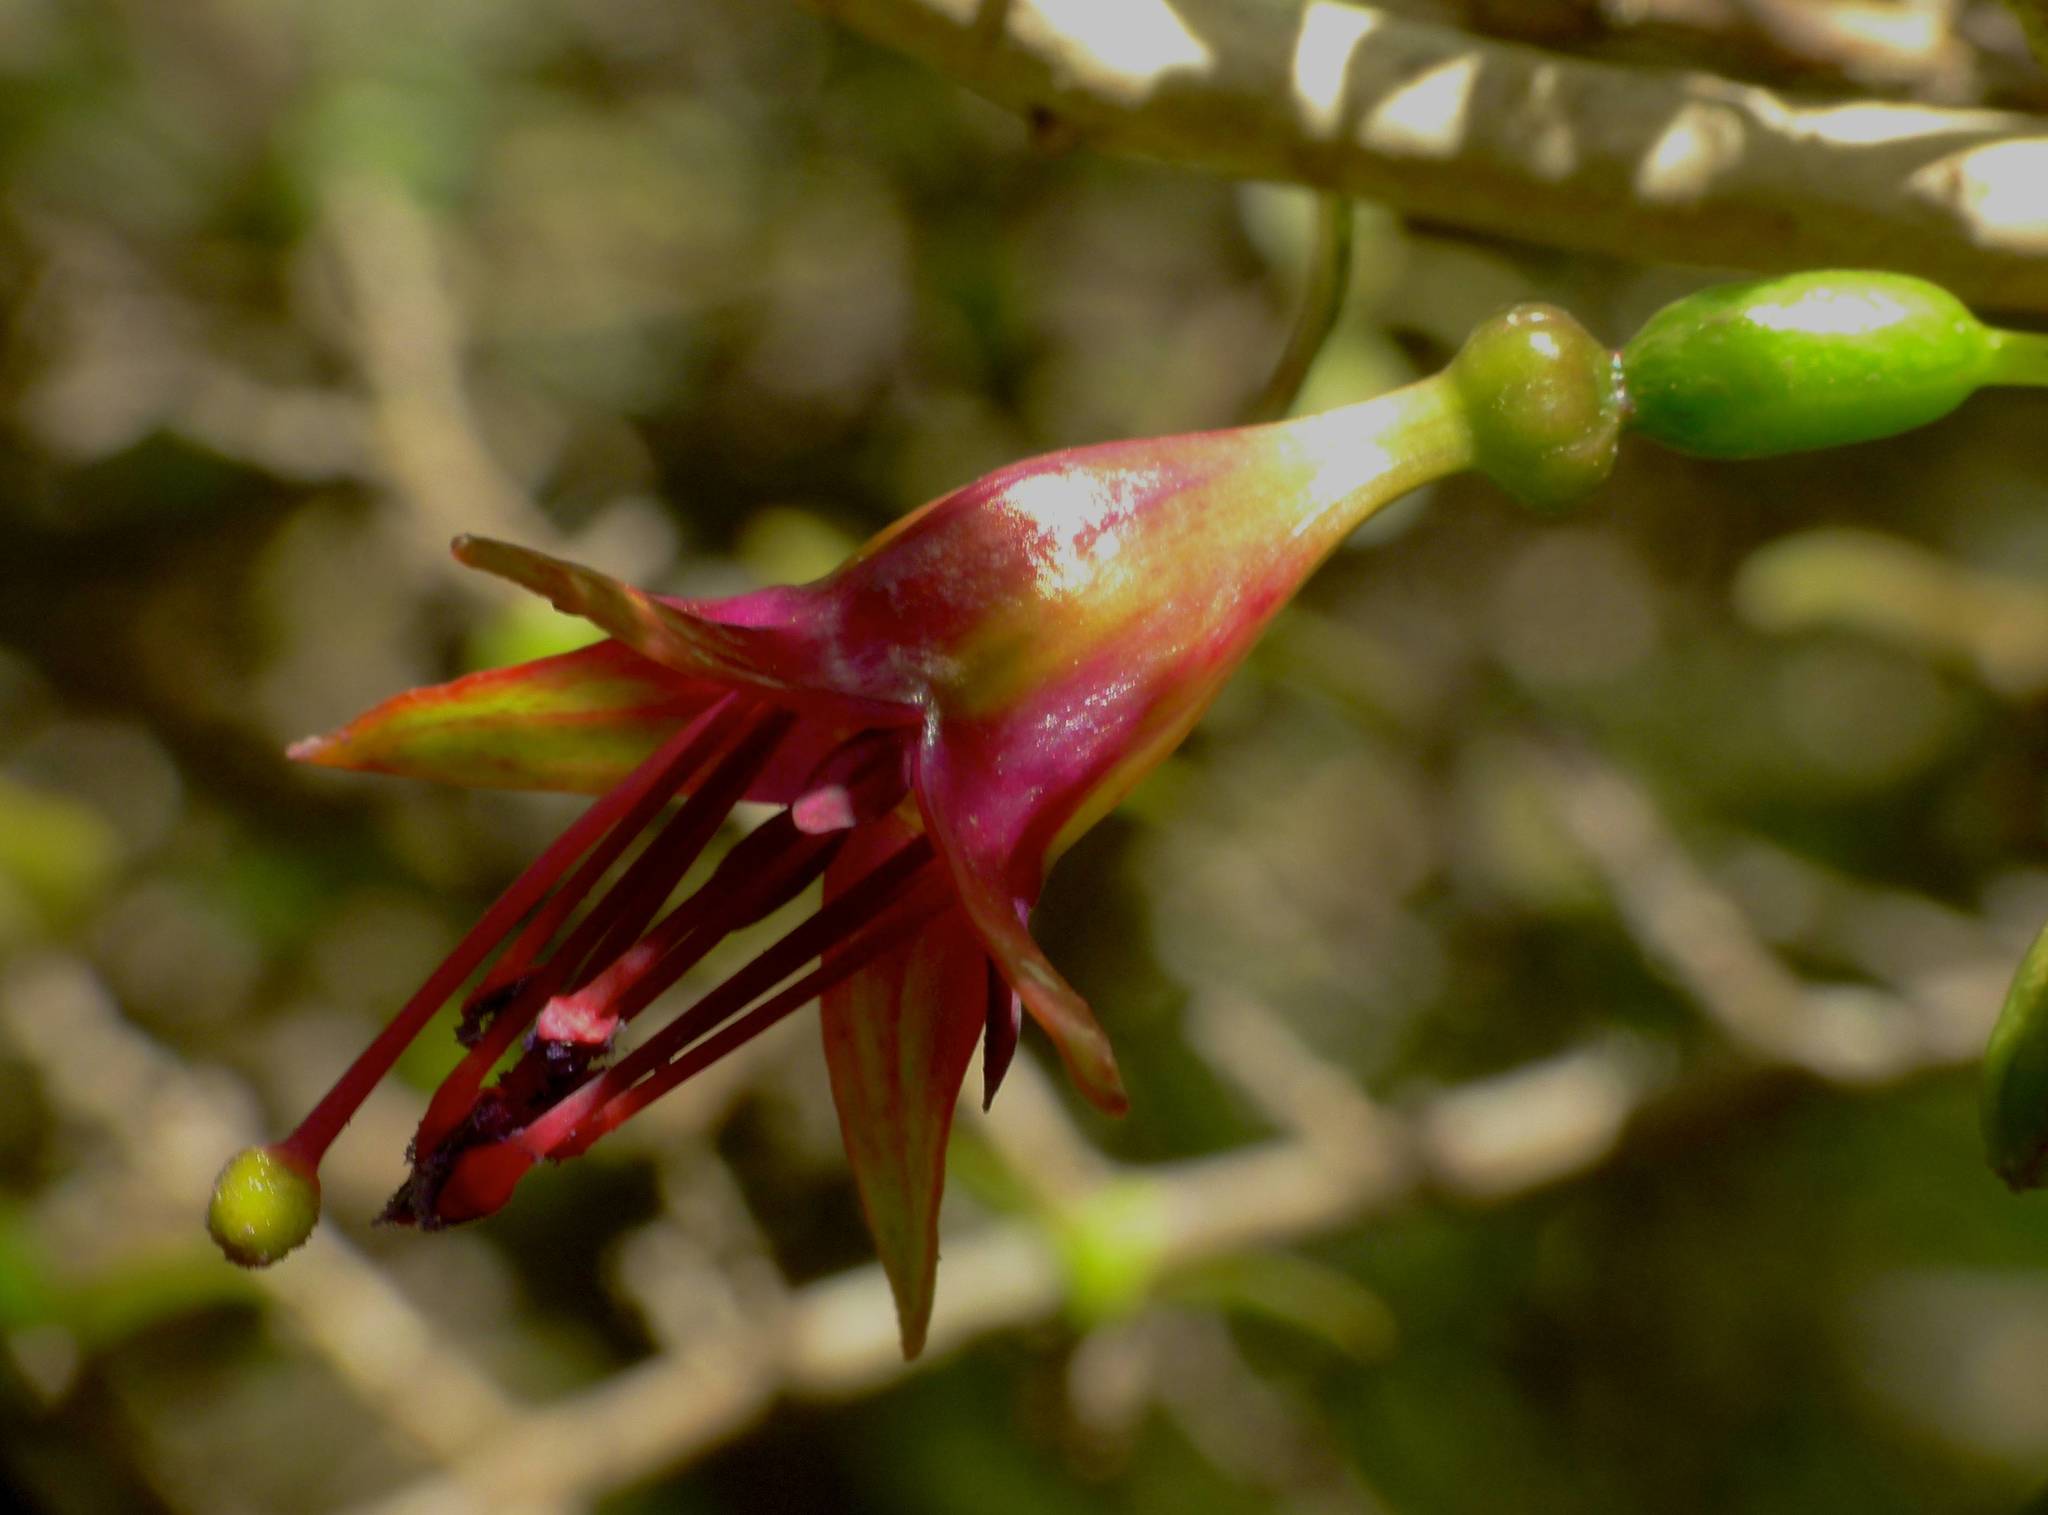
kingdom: Plantae
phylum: Tracheophyta
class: Magnoliopsida
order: Myrtales
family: Onagraceae
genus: Fuchsia
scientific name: Fuchsia excorticata
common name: Tree fuchsia
